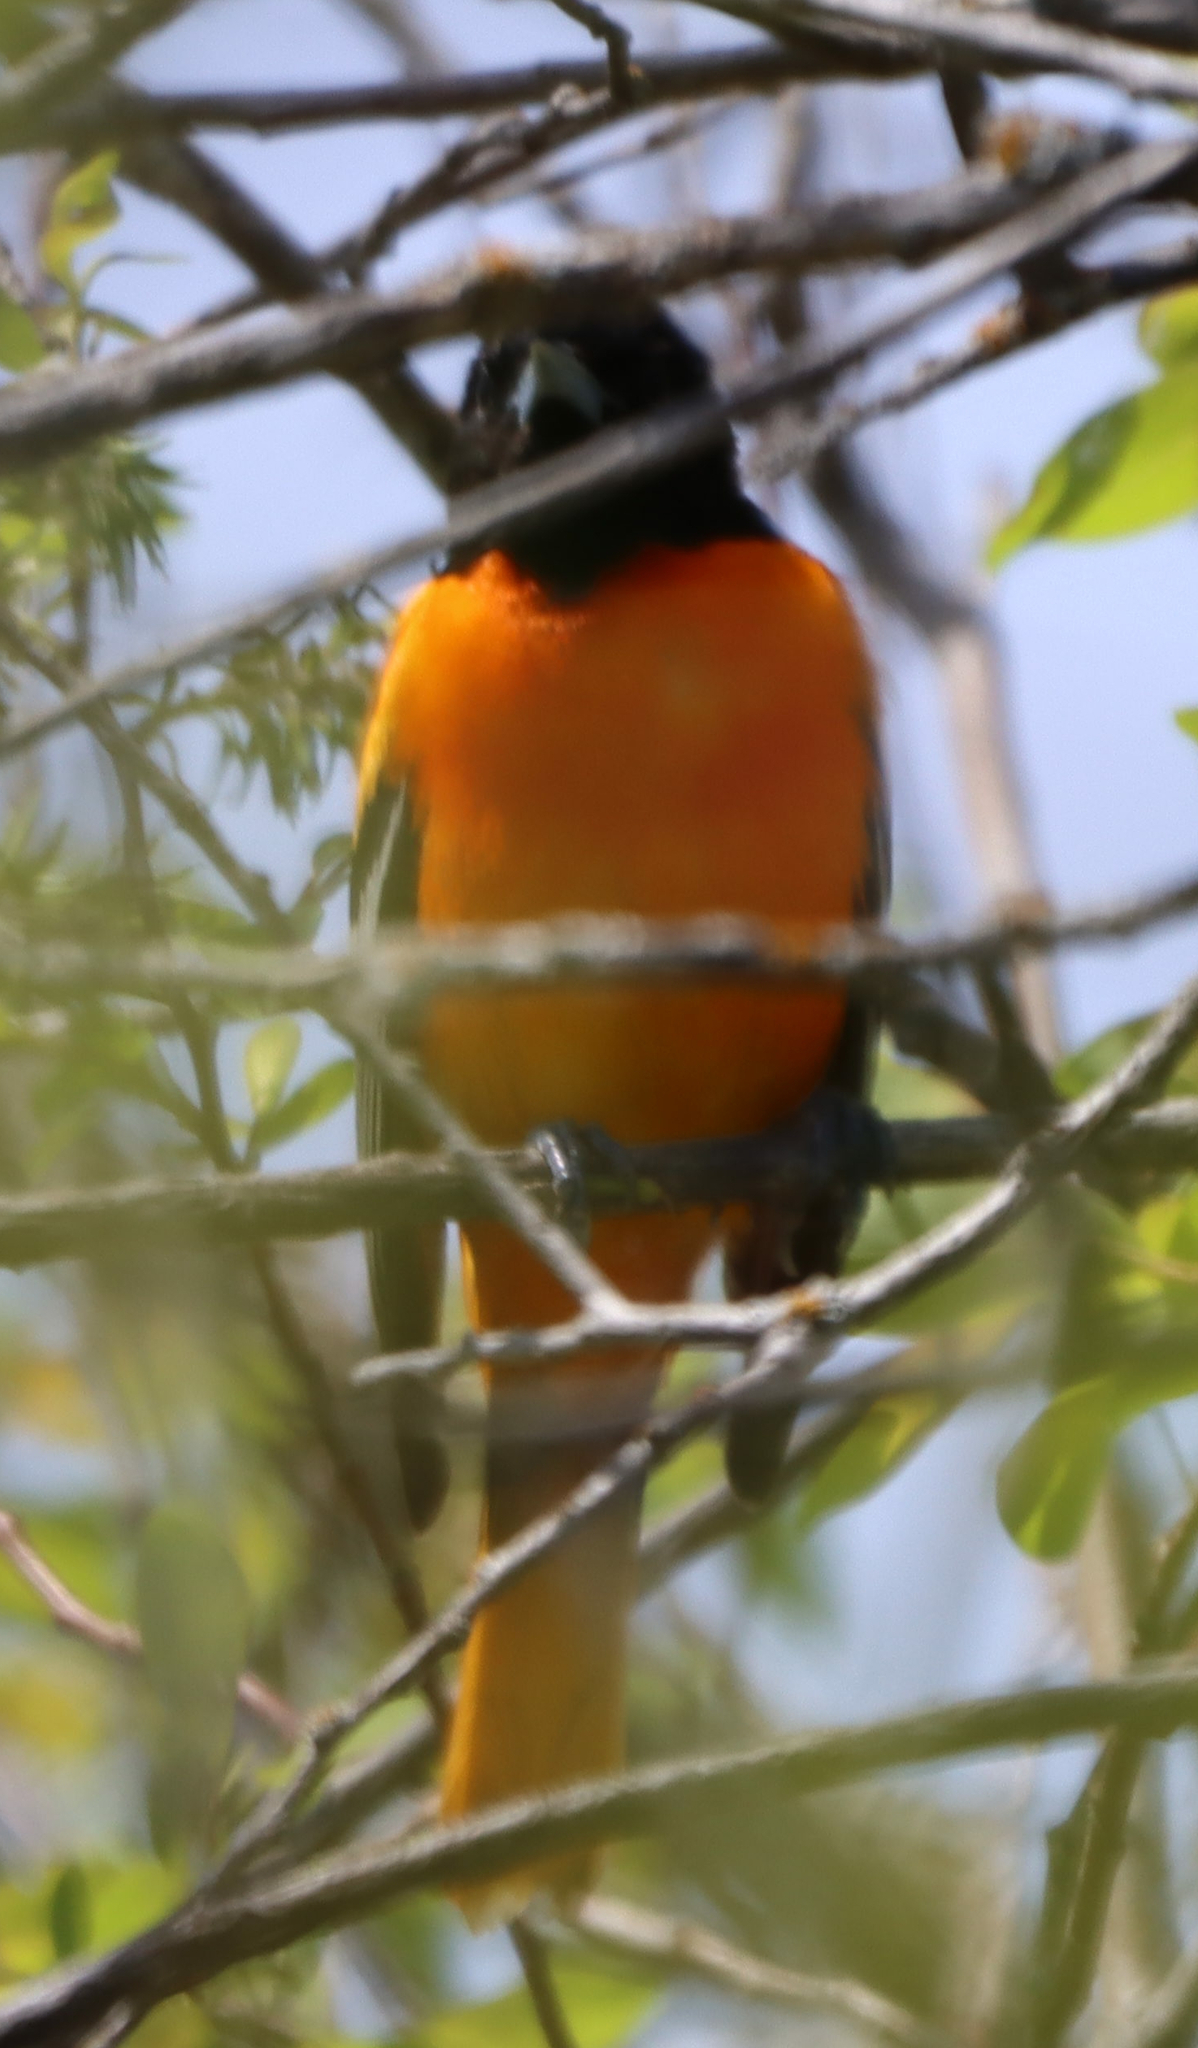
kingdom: Animalia
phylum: Chordata
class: Aves
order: Passeriformes
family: Icteridae
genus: Icterus
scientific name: Icterus galbula
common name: Baltimore oriole
